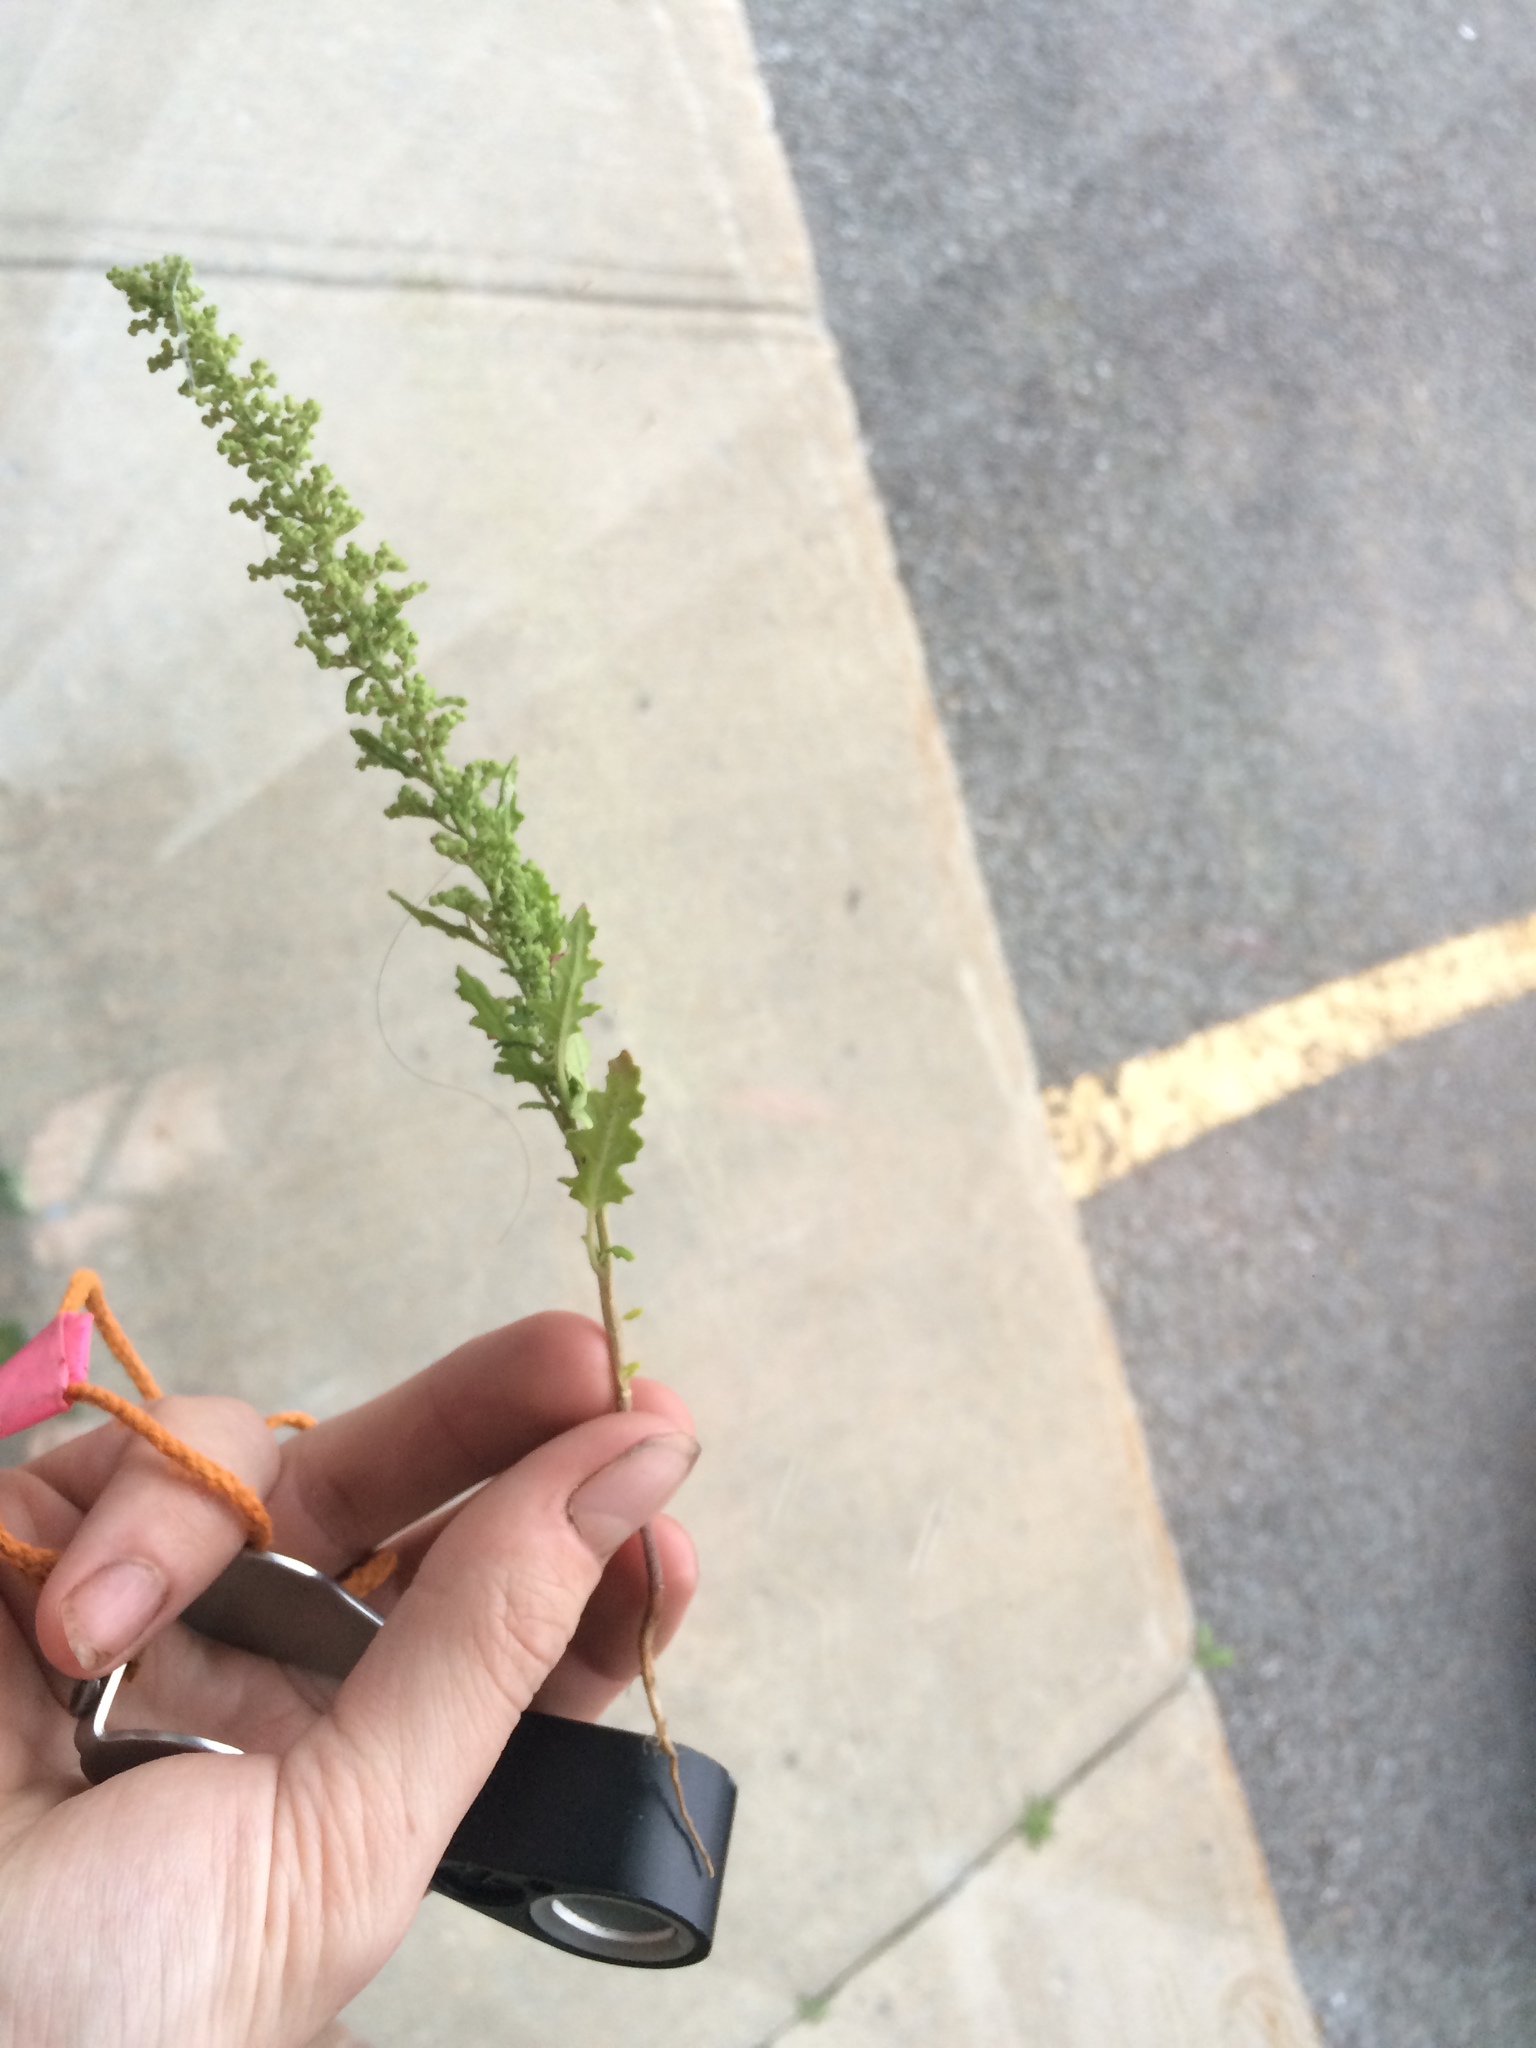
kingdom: Plantae
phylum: Tracheophyta
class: Magnoliopsida
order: Caryophyllales
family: Amaranthaceae
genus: Dysphania
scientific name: Dysphania botrys
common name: Feather-geranium
